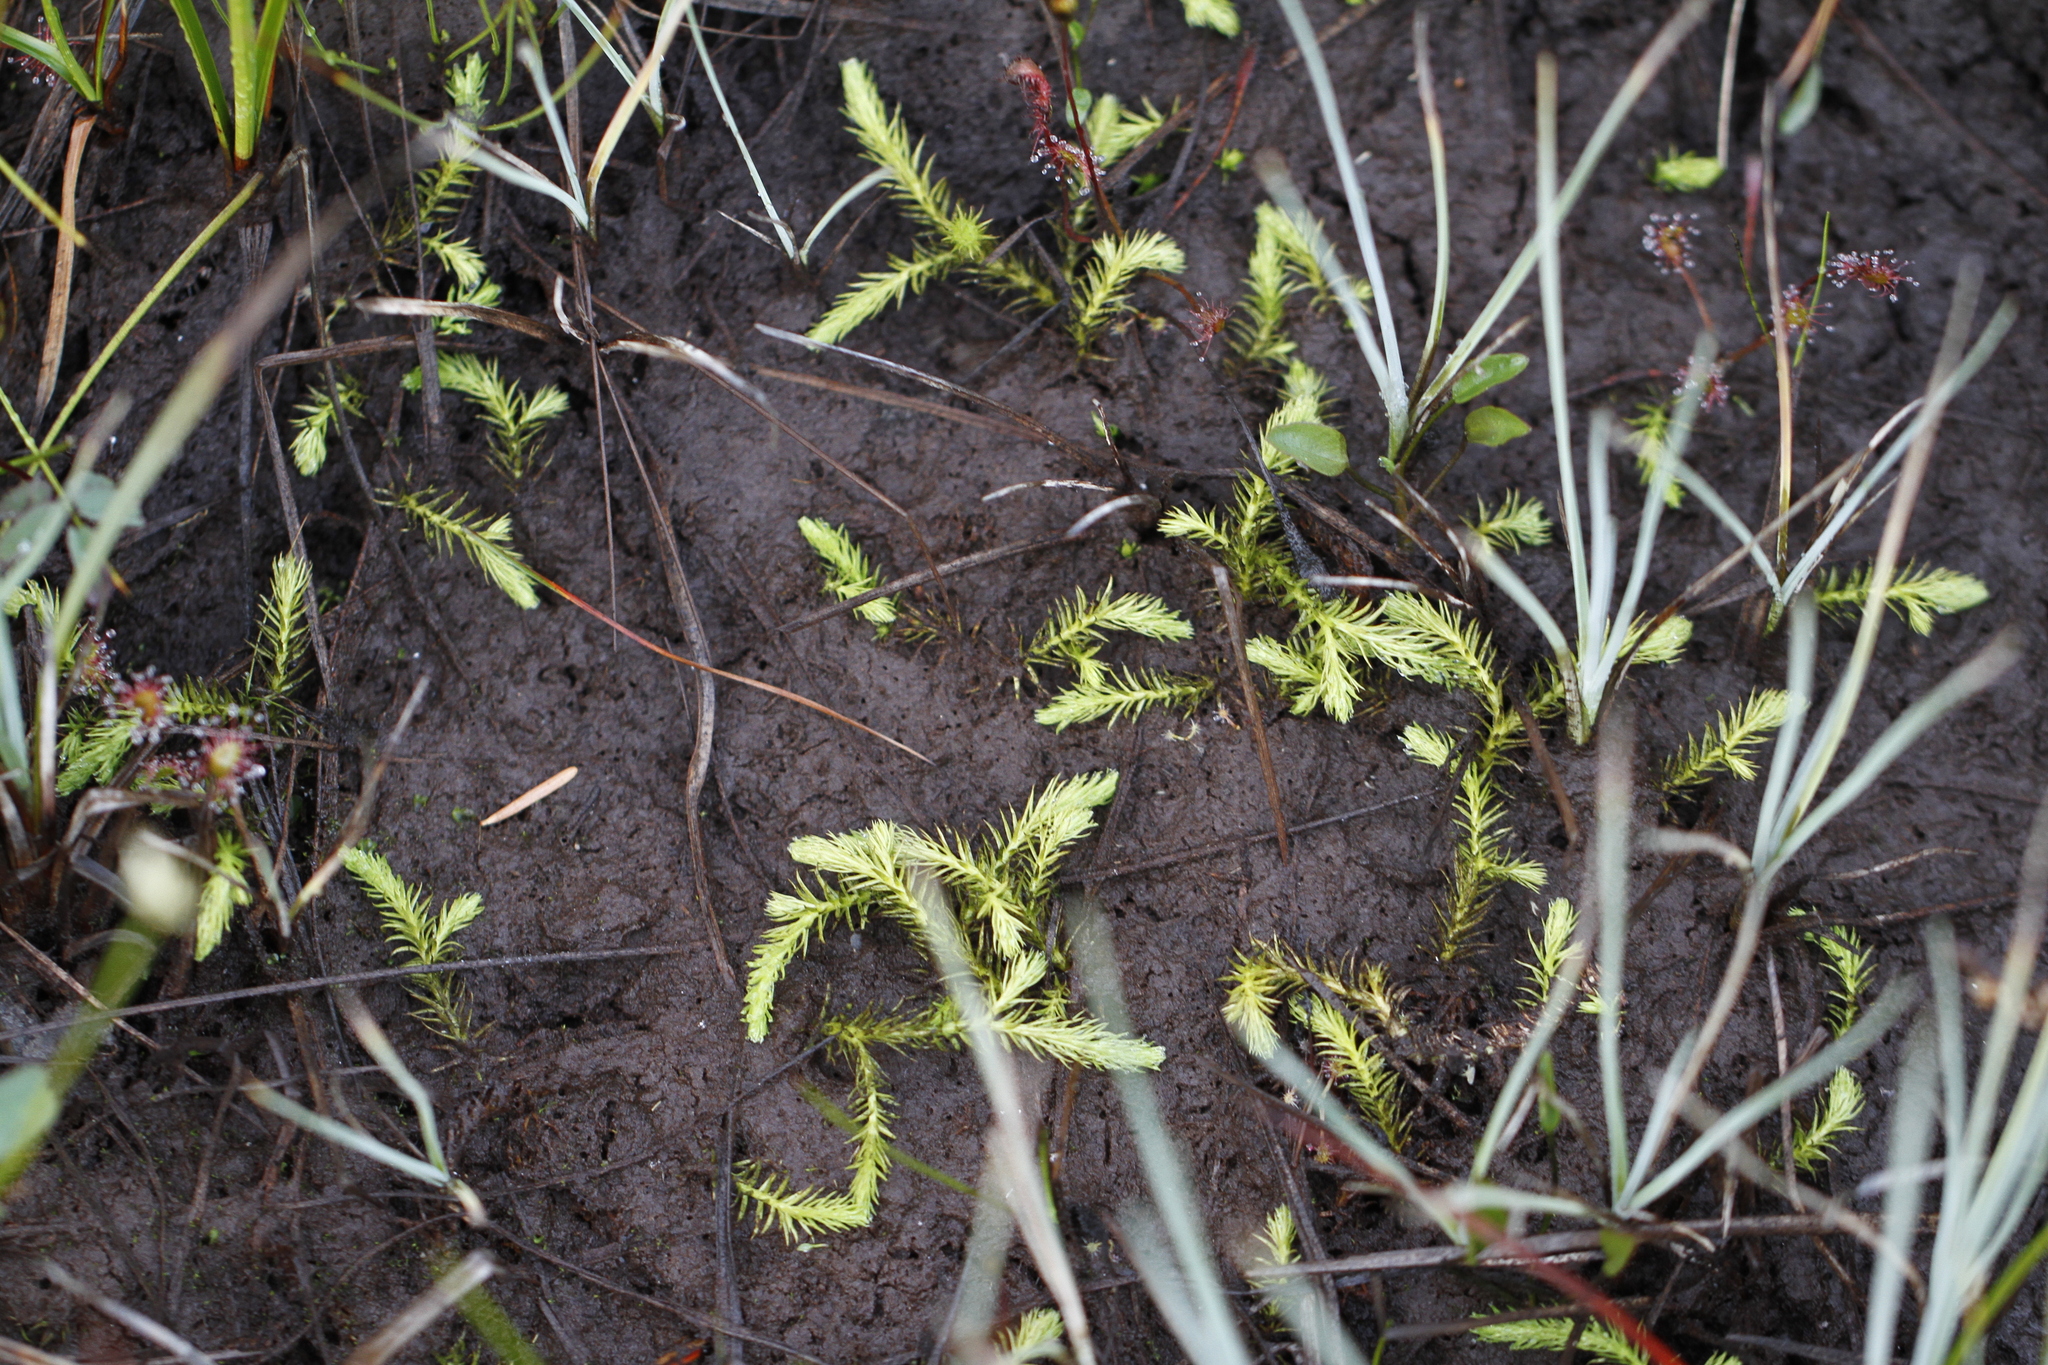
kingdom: Plantae
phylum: Tracheophyta
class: Lycopodiopsida
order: Lycopodiales
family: Lycopodiaceae
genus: Lycopodiella
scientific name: Lycopodiella inundata
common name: Marsh clubmoss
